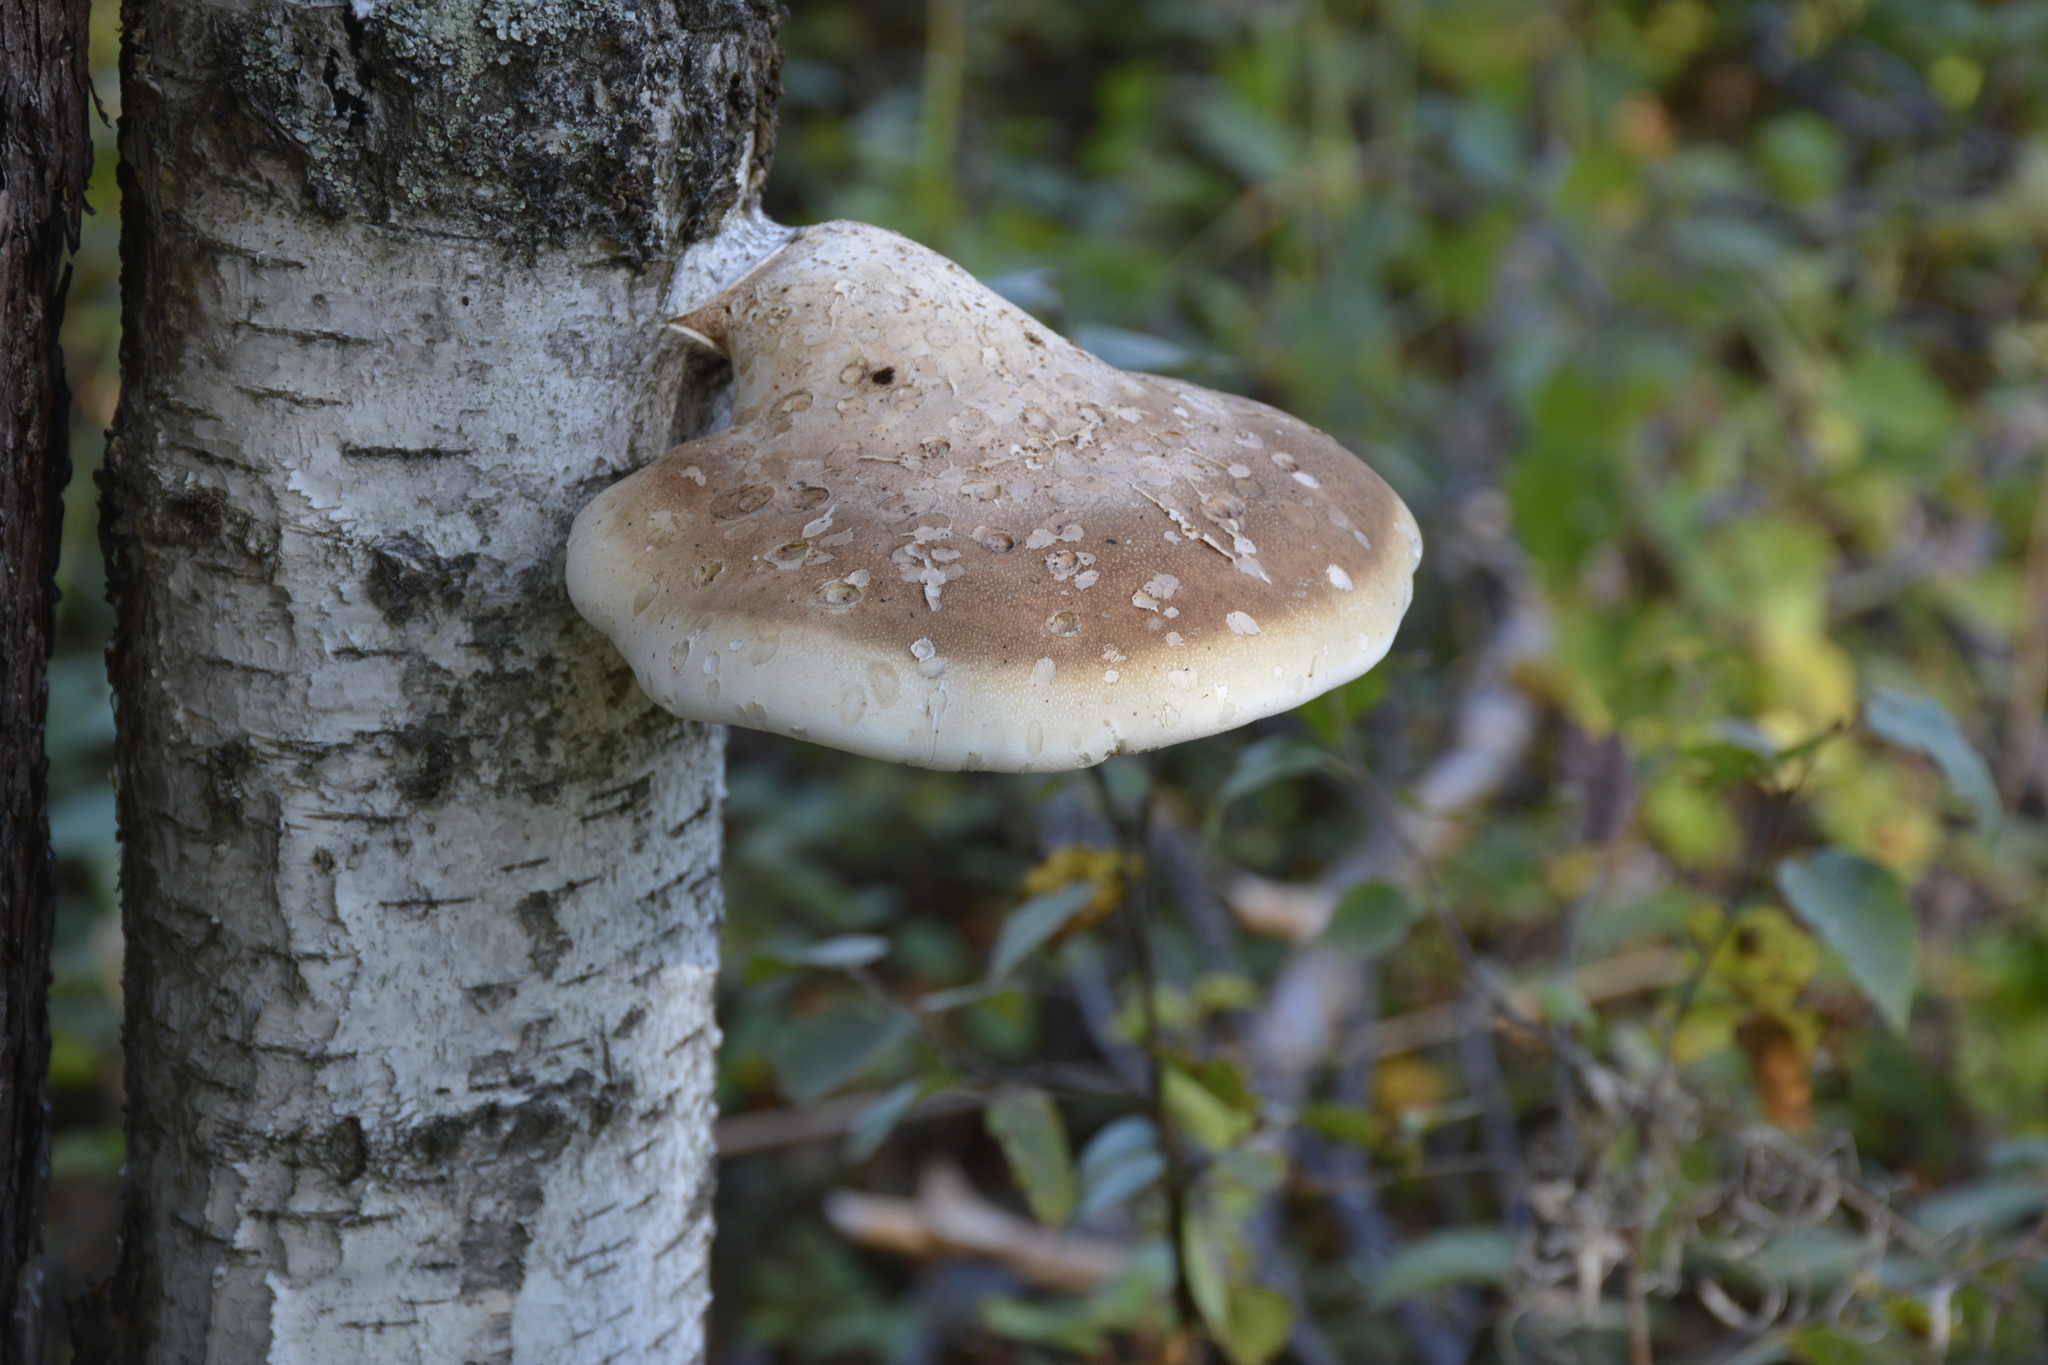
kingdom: Fungi
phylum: Basidiomycota
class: Agaricomycetes
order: Polyporales
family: Fomitopsidaceae
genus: Fomitopsis
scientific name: Fomitopsis betulina
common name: Birch polypore
